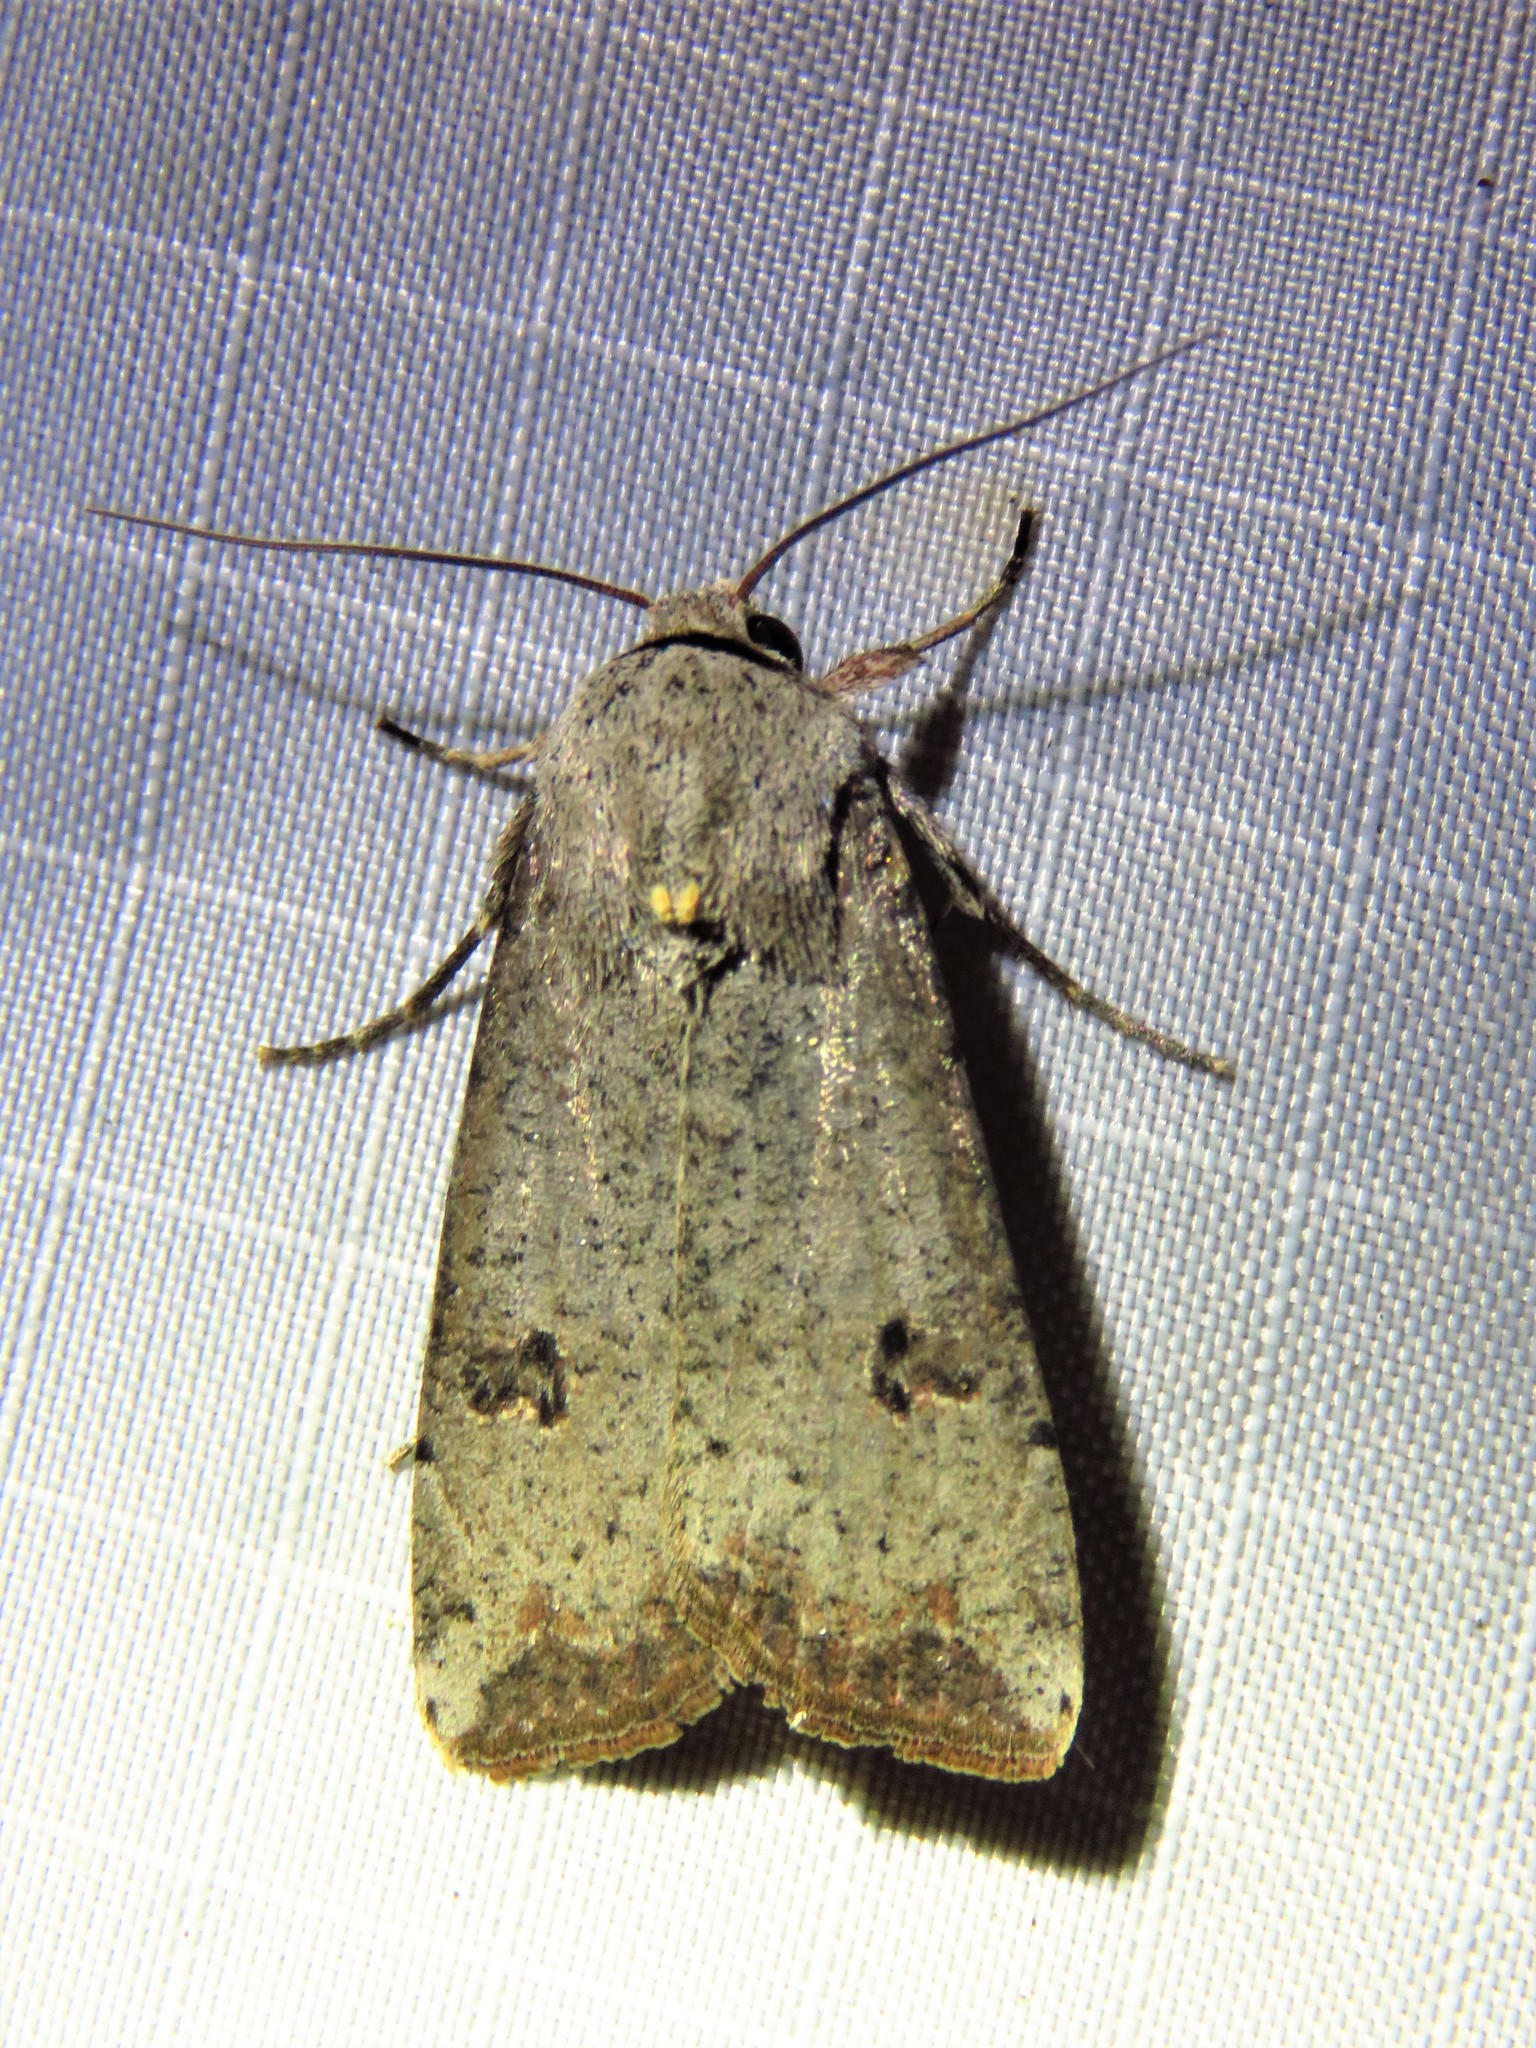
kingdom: Animalia
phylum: Arthropoda
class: Insecta
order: Lepidoptera
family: Noctuidae
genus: Anicla
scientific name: Anicla infecta
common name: Green cutworm
